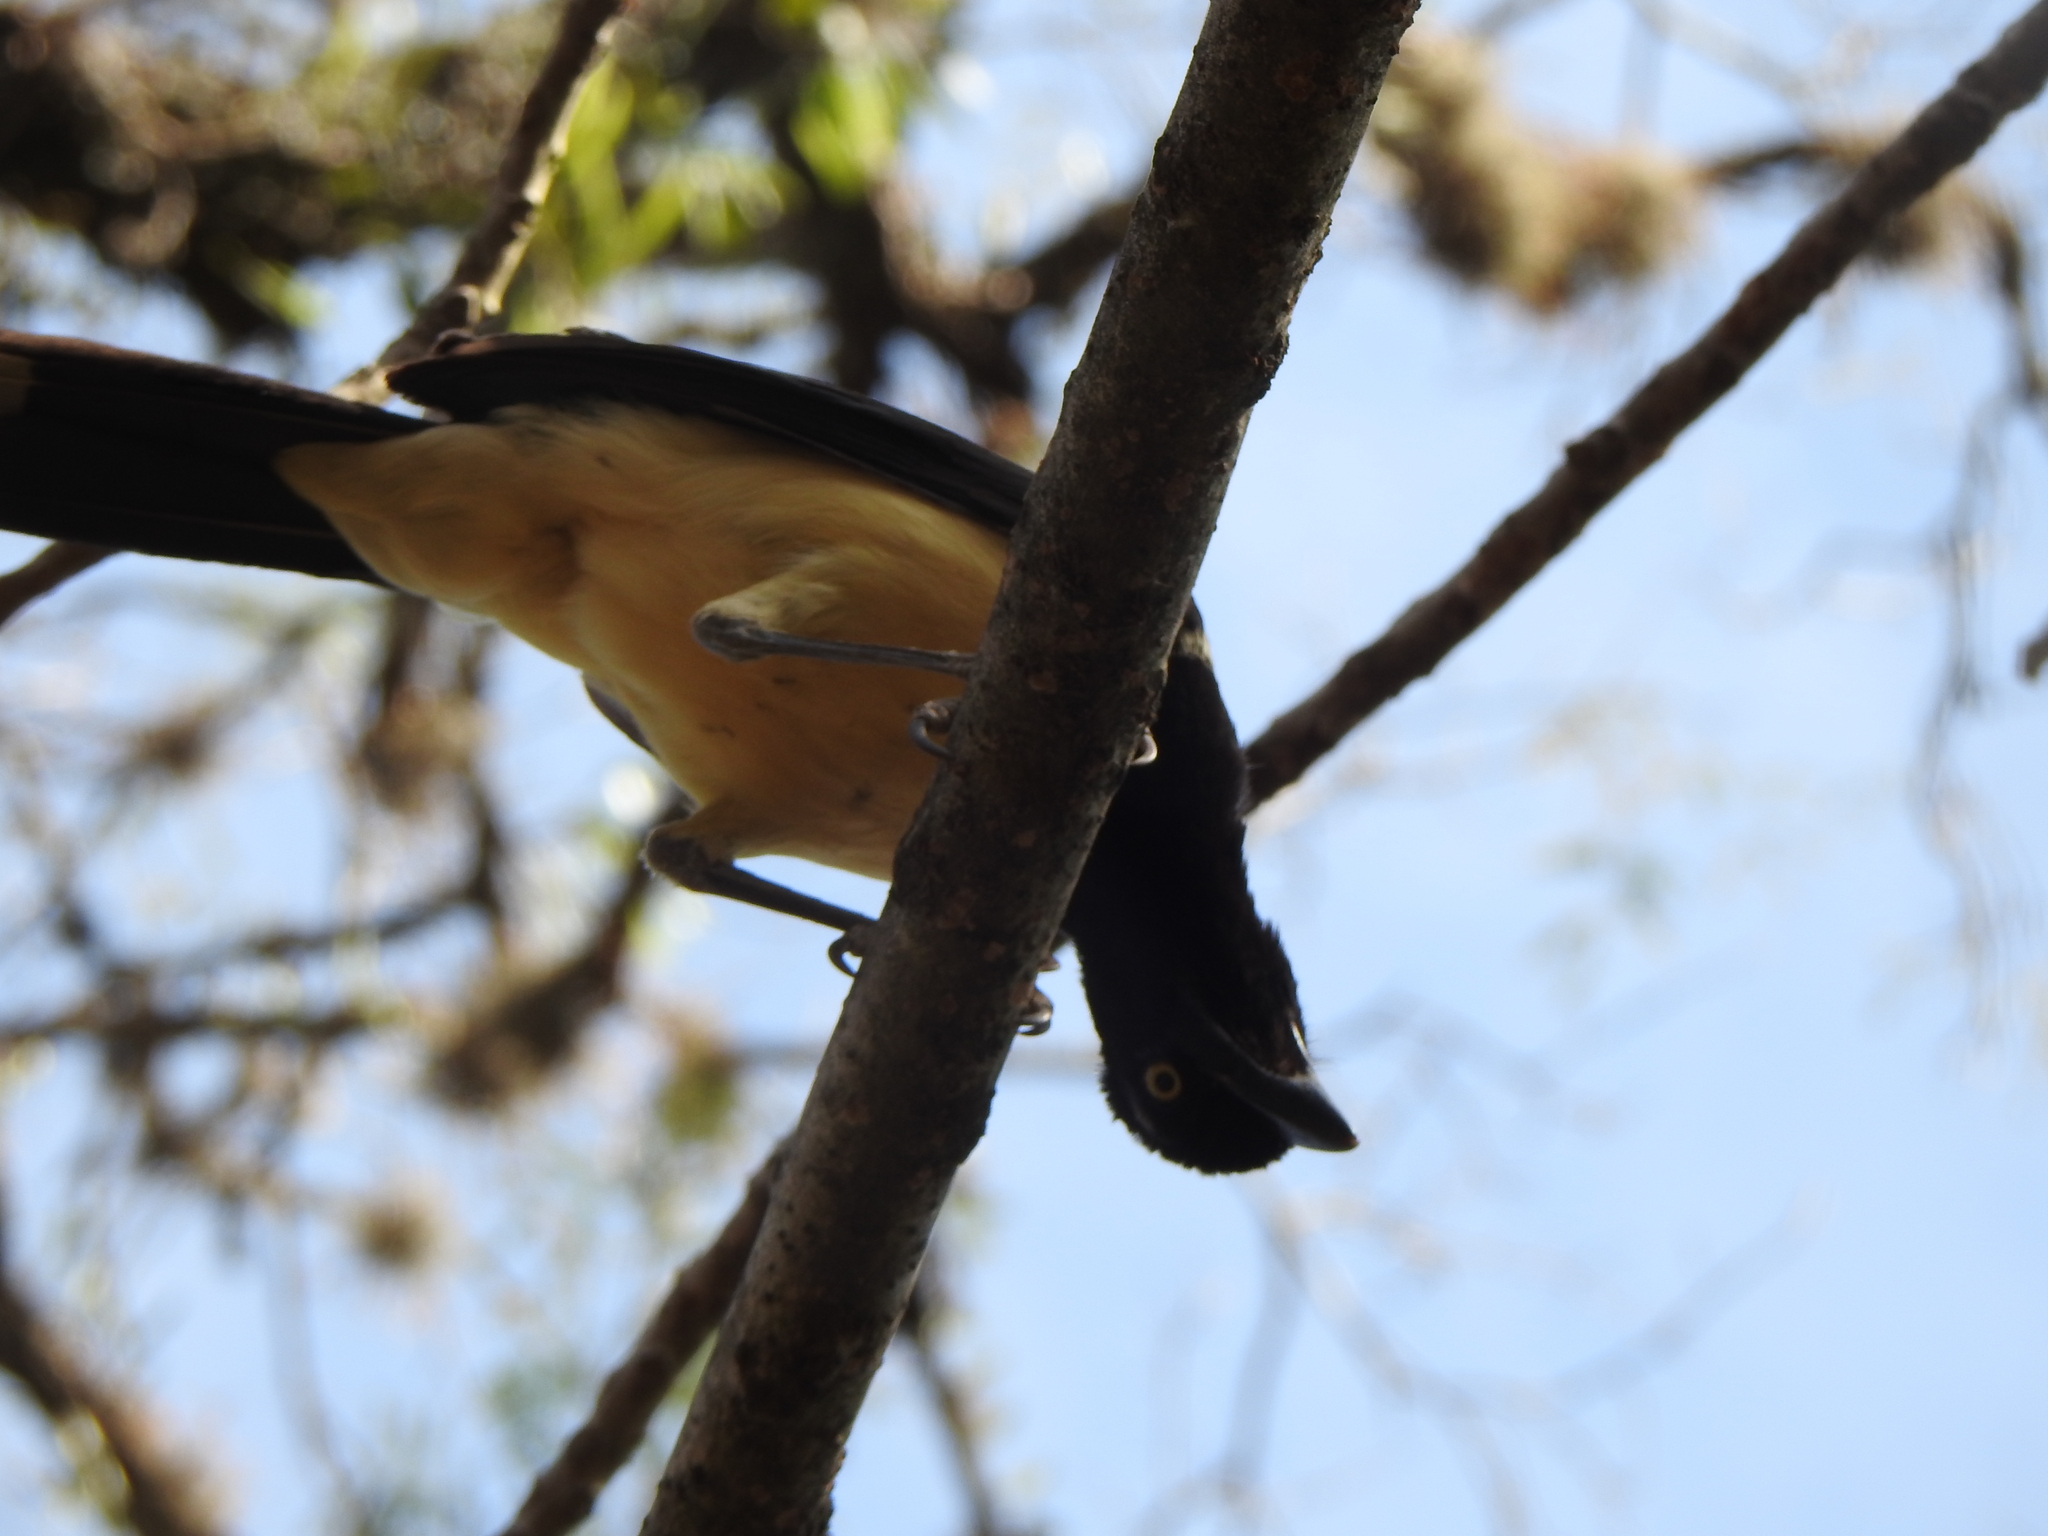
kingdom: Animalia
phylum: Chordata
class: Aves
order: Passeriformes
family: Corvidae
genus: Cyanocorax
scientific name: Cyanocorax chrysops
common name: Plush-crested jay
